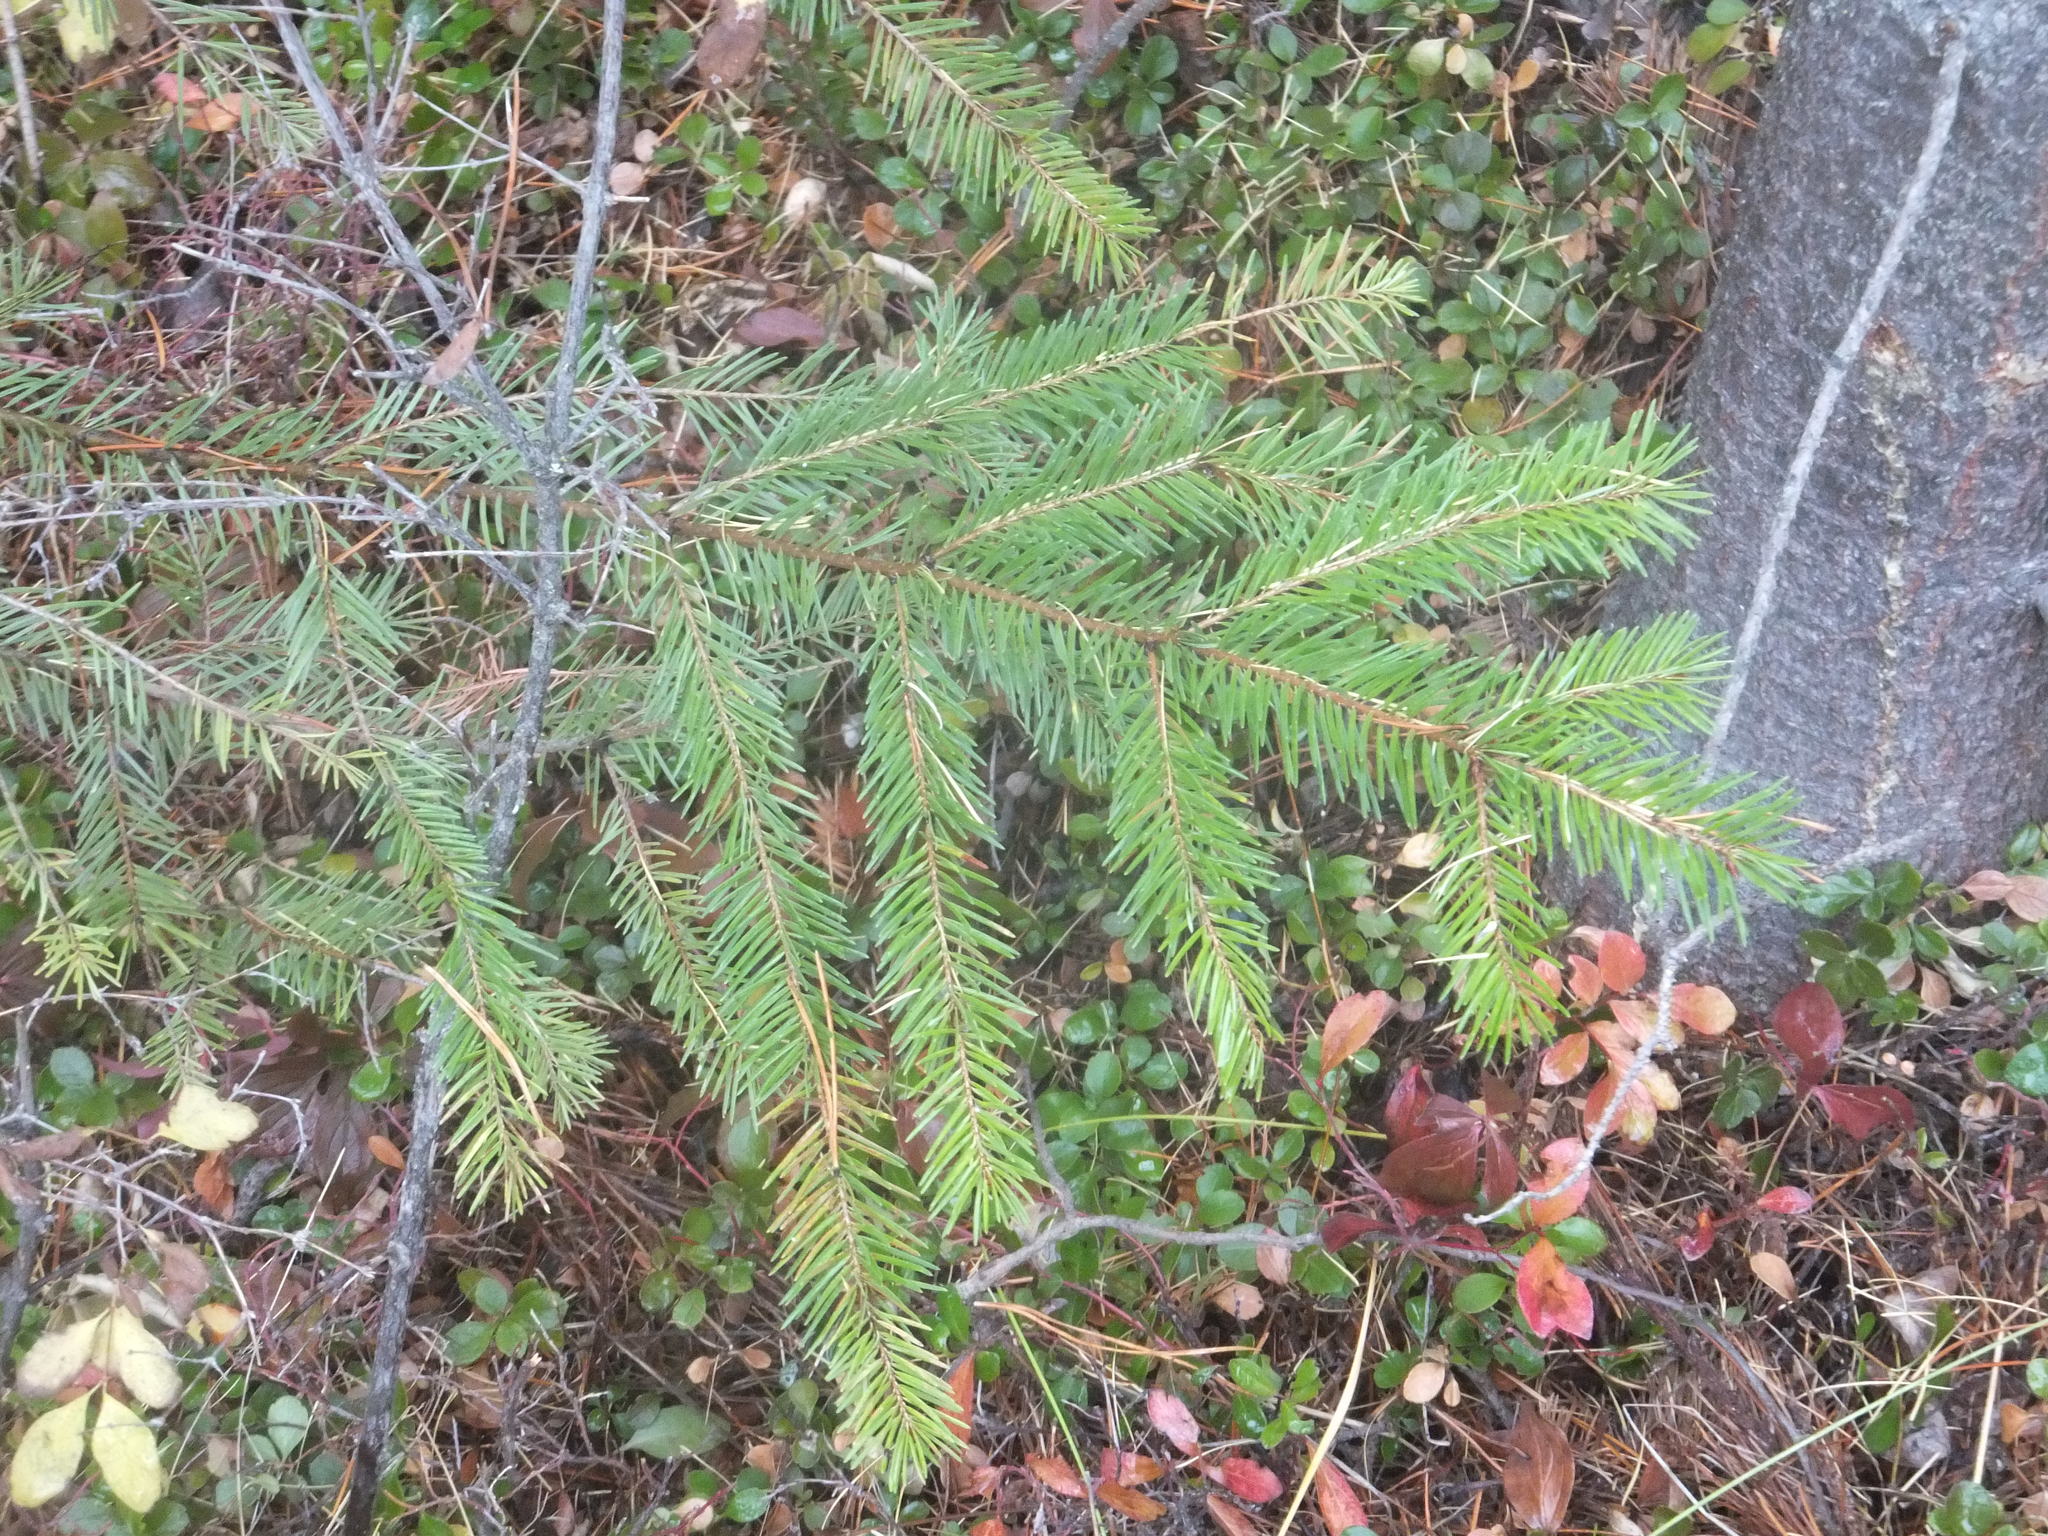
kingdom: Plantae
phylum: Tracheophyta
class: Pinopsida
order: Pinales
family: Pinaceae
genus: Pseudotsuga
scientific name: Pseudotsuga menziesii
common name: Douglas fir
